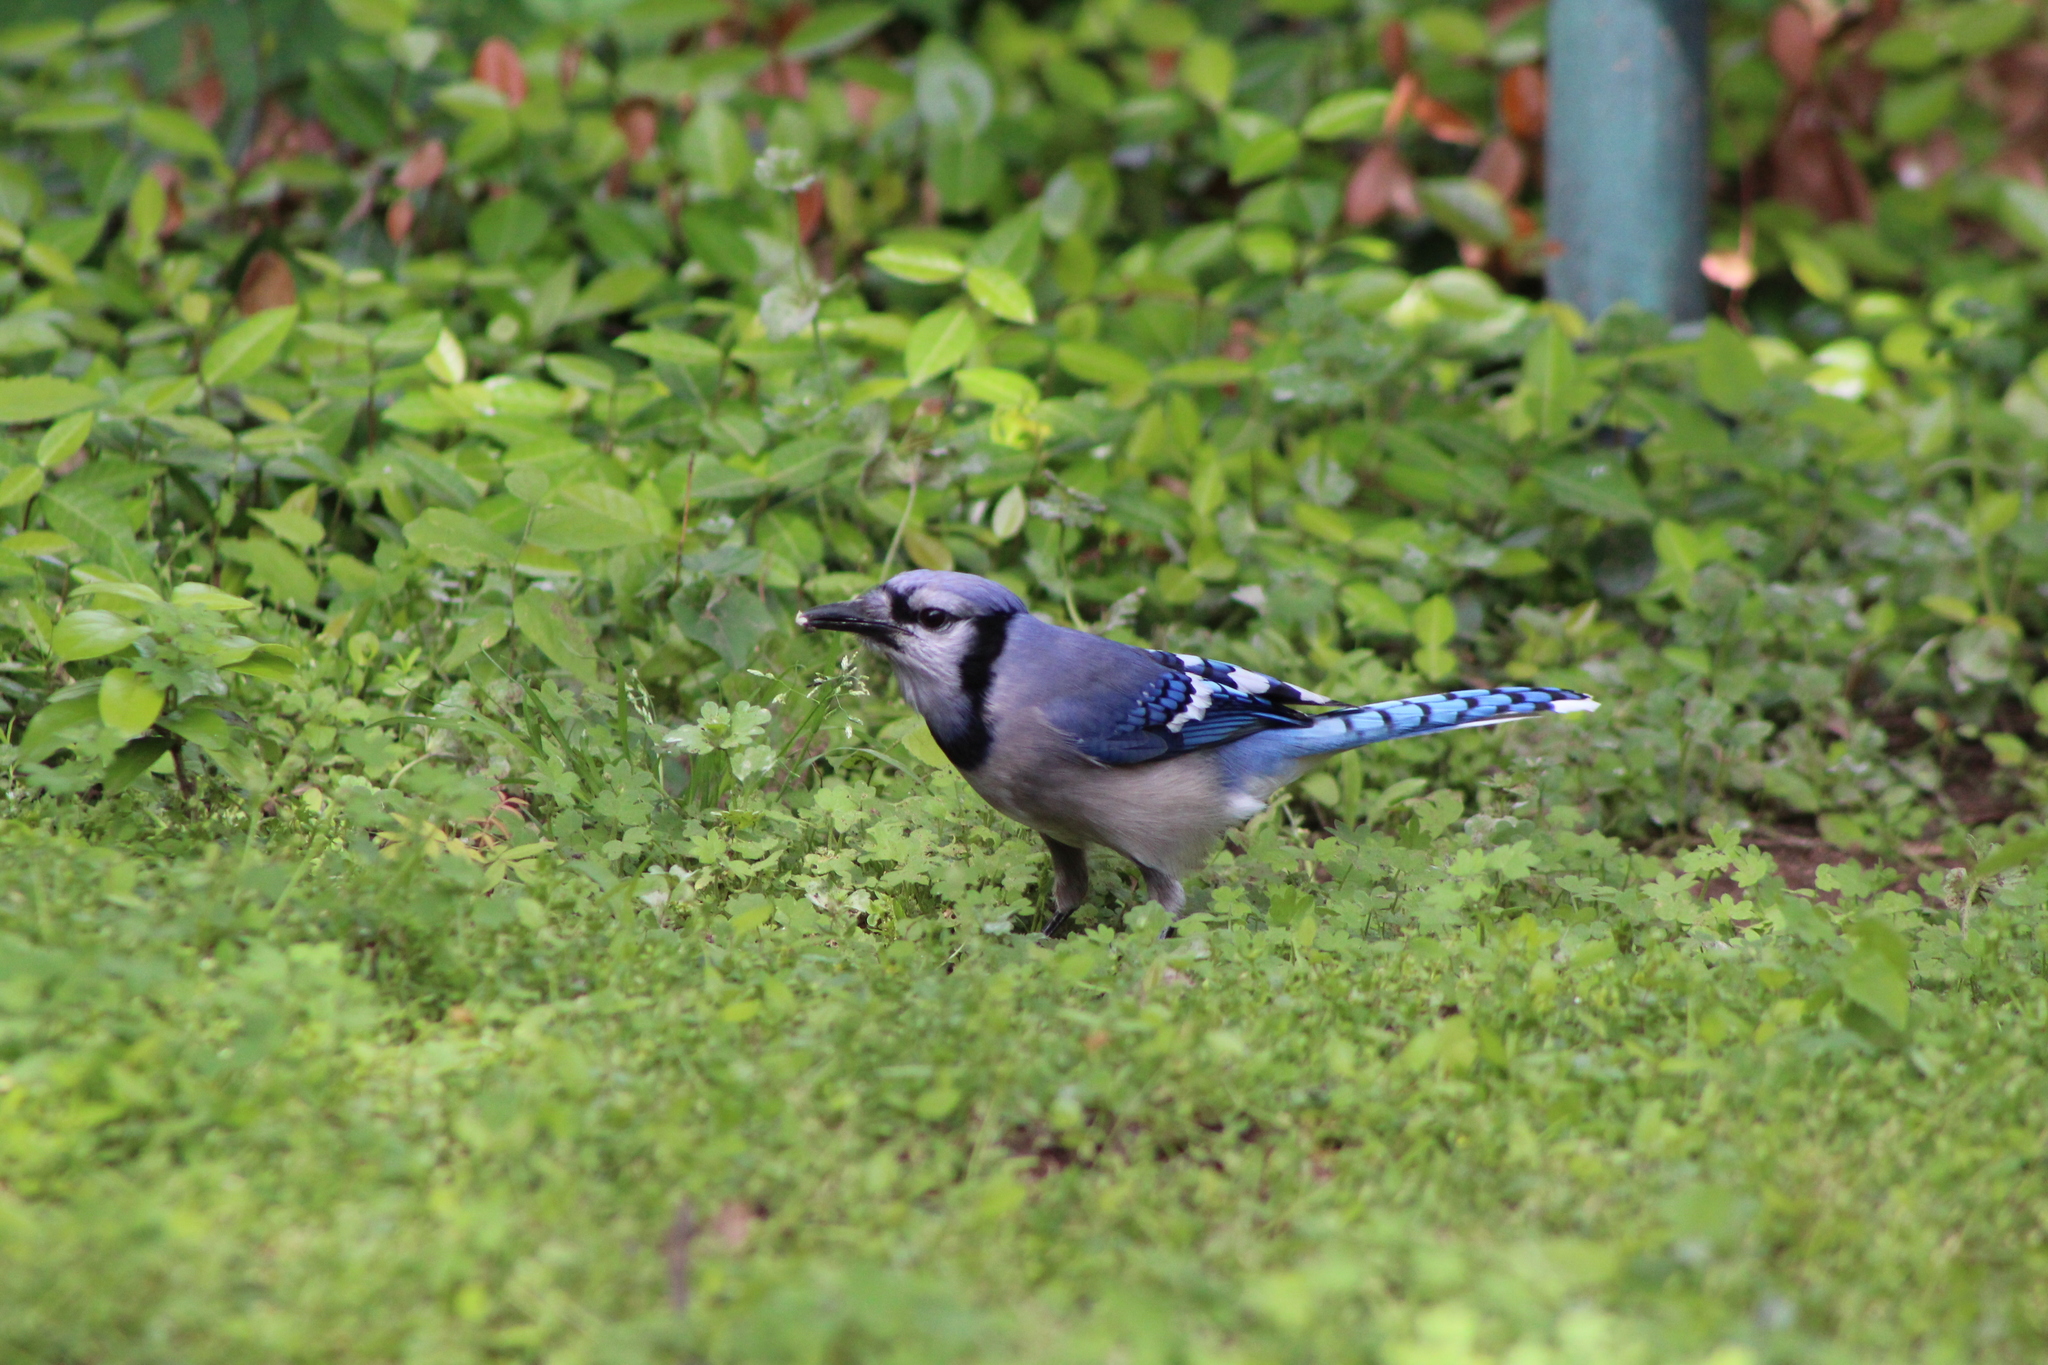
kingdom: Animalia
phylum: Chordata
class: Aves
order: Passeriformes
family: Corvidae
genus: Cyanocitta
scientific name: Cyanocitta cristata
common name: Blue jay
